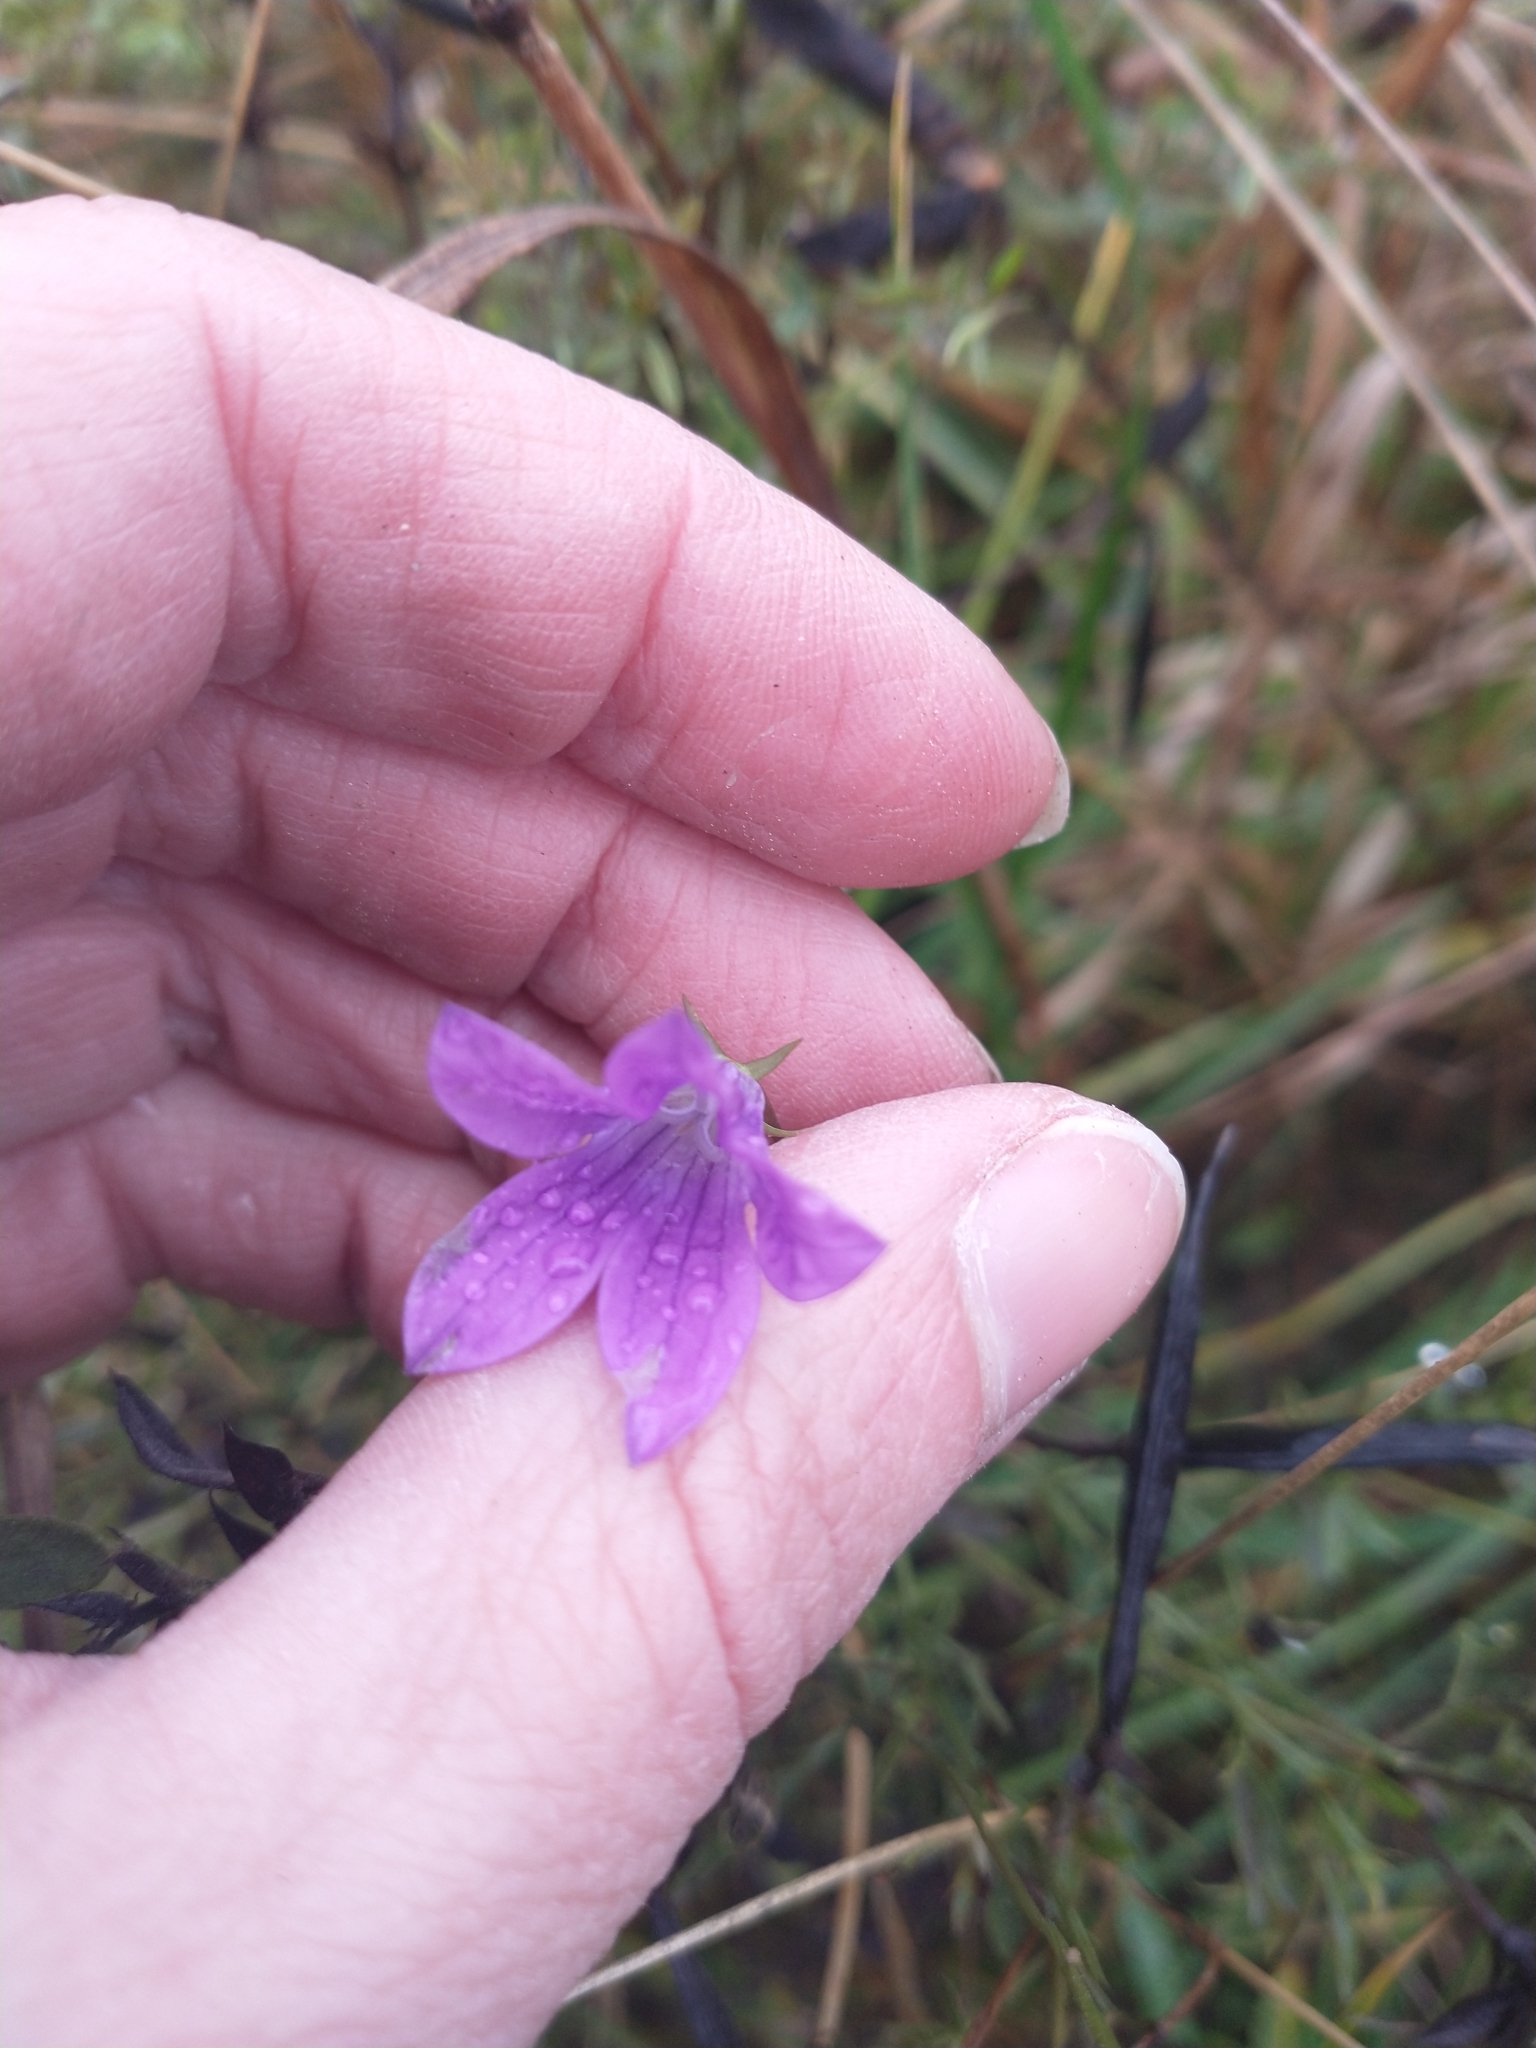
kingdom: Plantae
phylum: Tracheophyta
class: Magnoliopsida
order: Asterales
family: Campanulaceae
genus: Campanula
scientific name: Campanula patula
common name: Spreading bellflower
